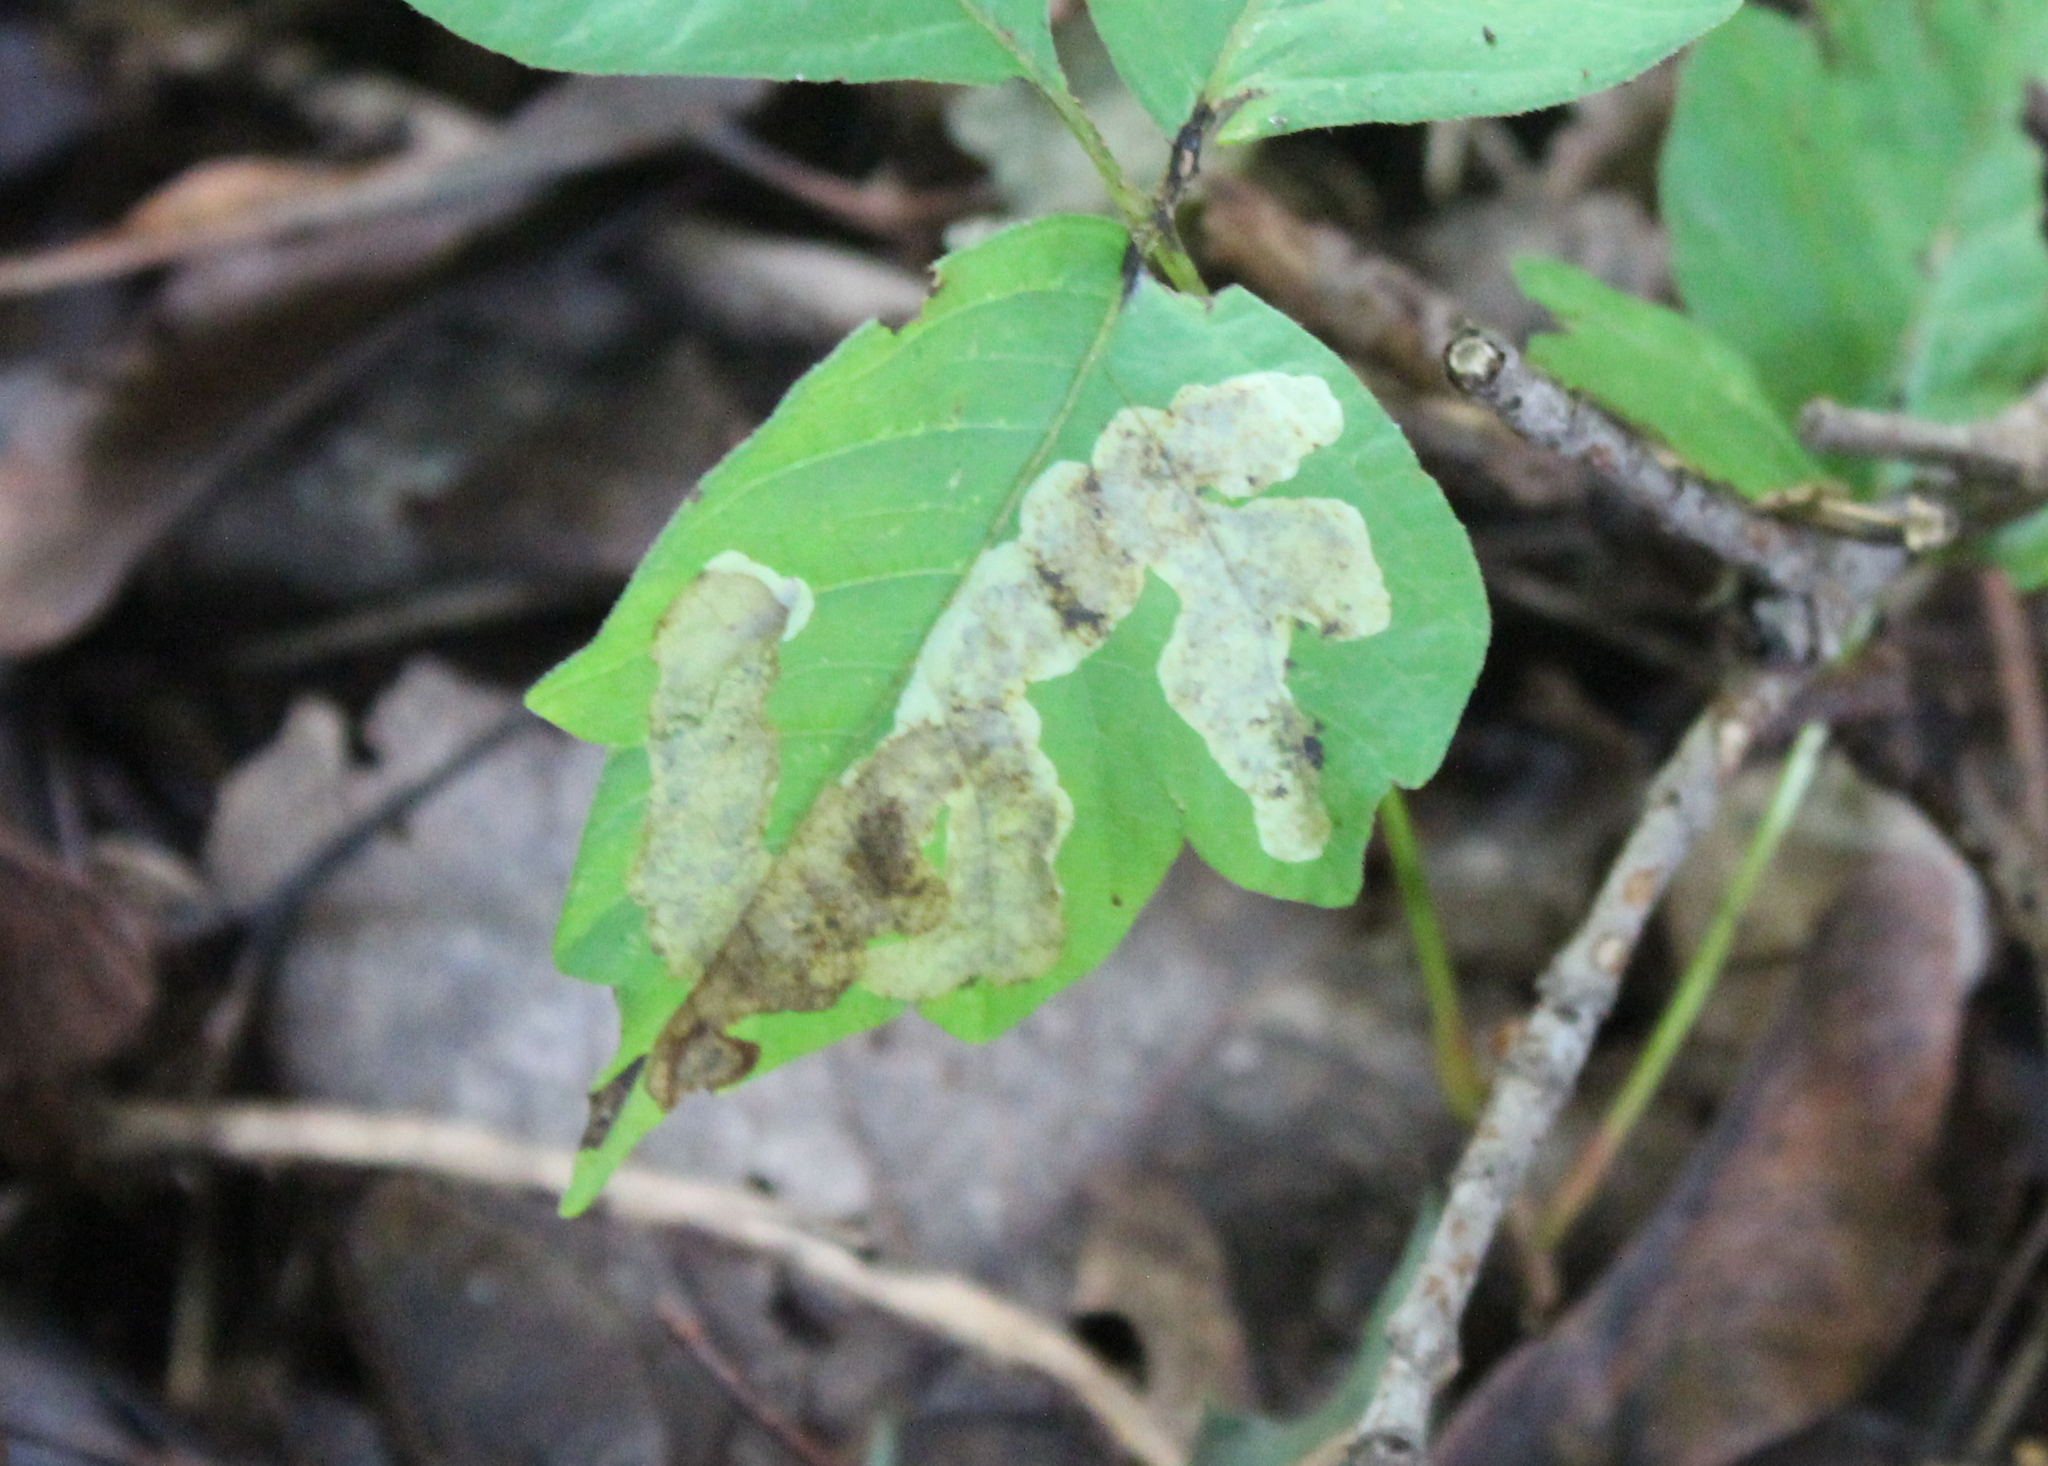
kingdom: Animalia
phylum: Arthropoda
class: Insecta
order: Lepidoptera
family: Gracillariidae
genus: Cameraria
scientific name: Cameraria guttifinitella
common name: Poison ivy leaf-miner moth
